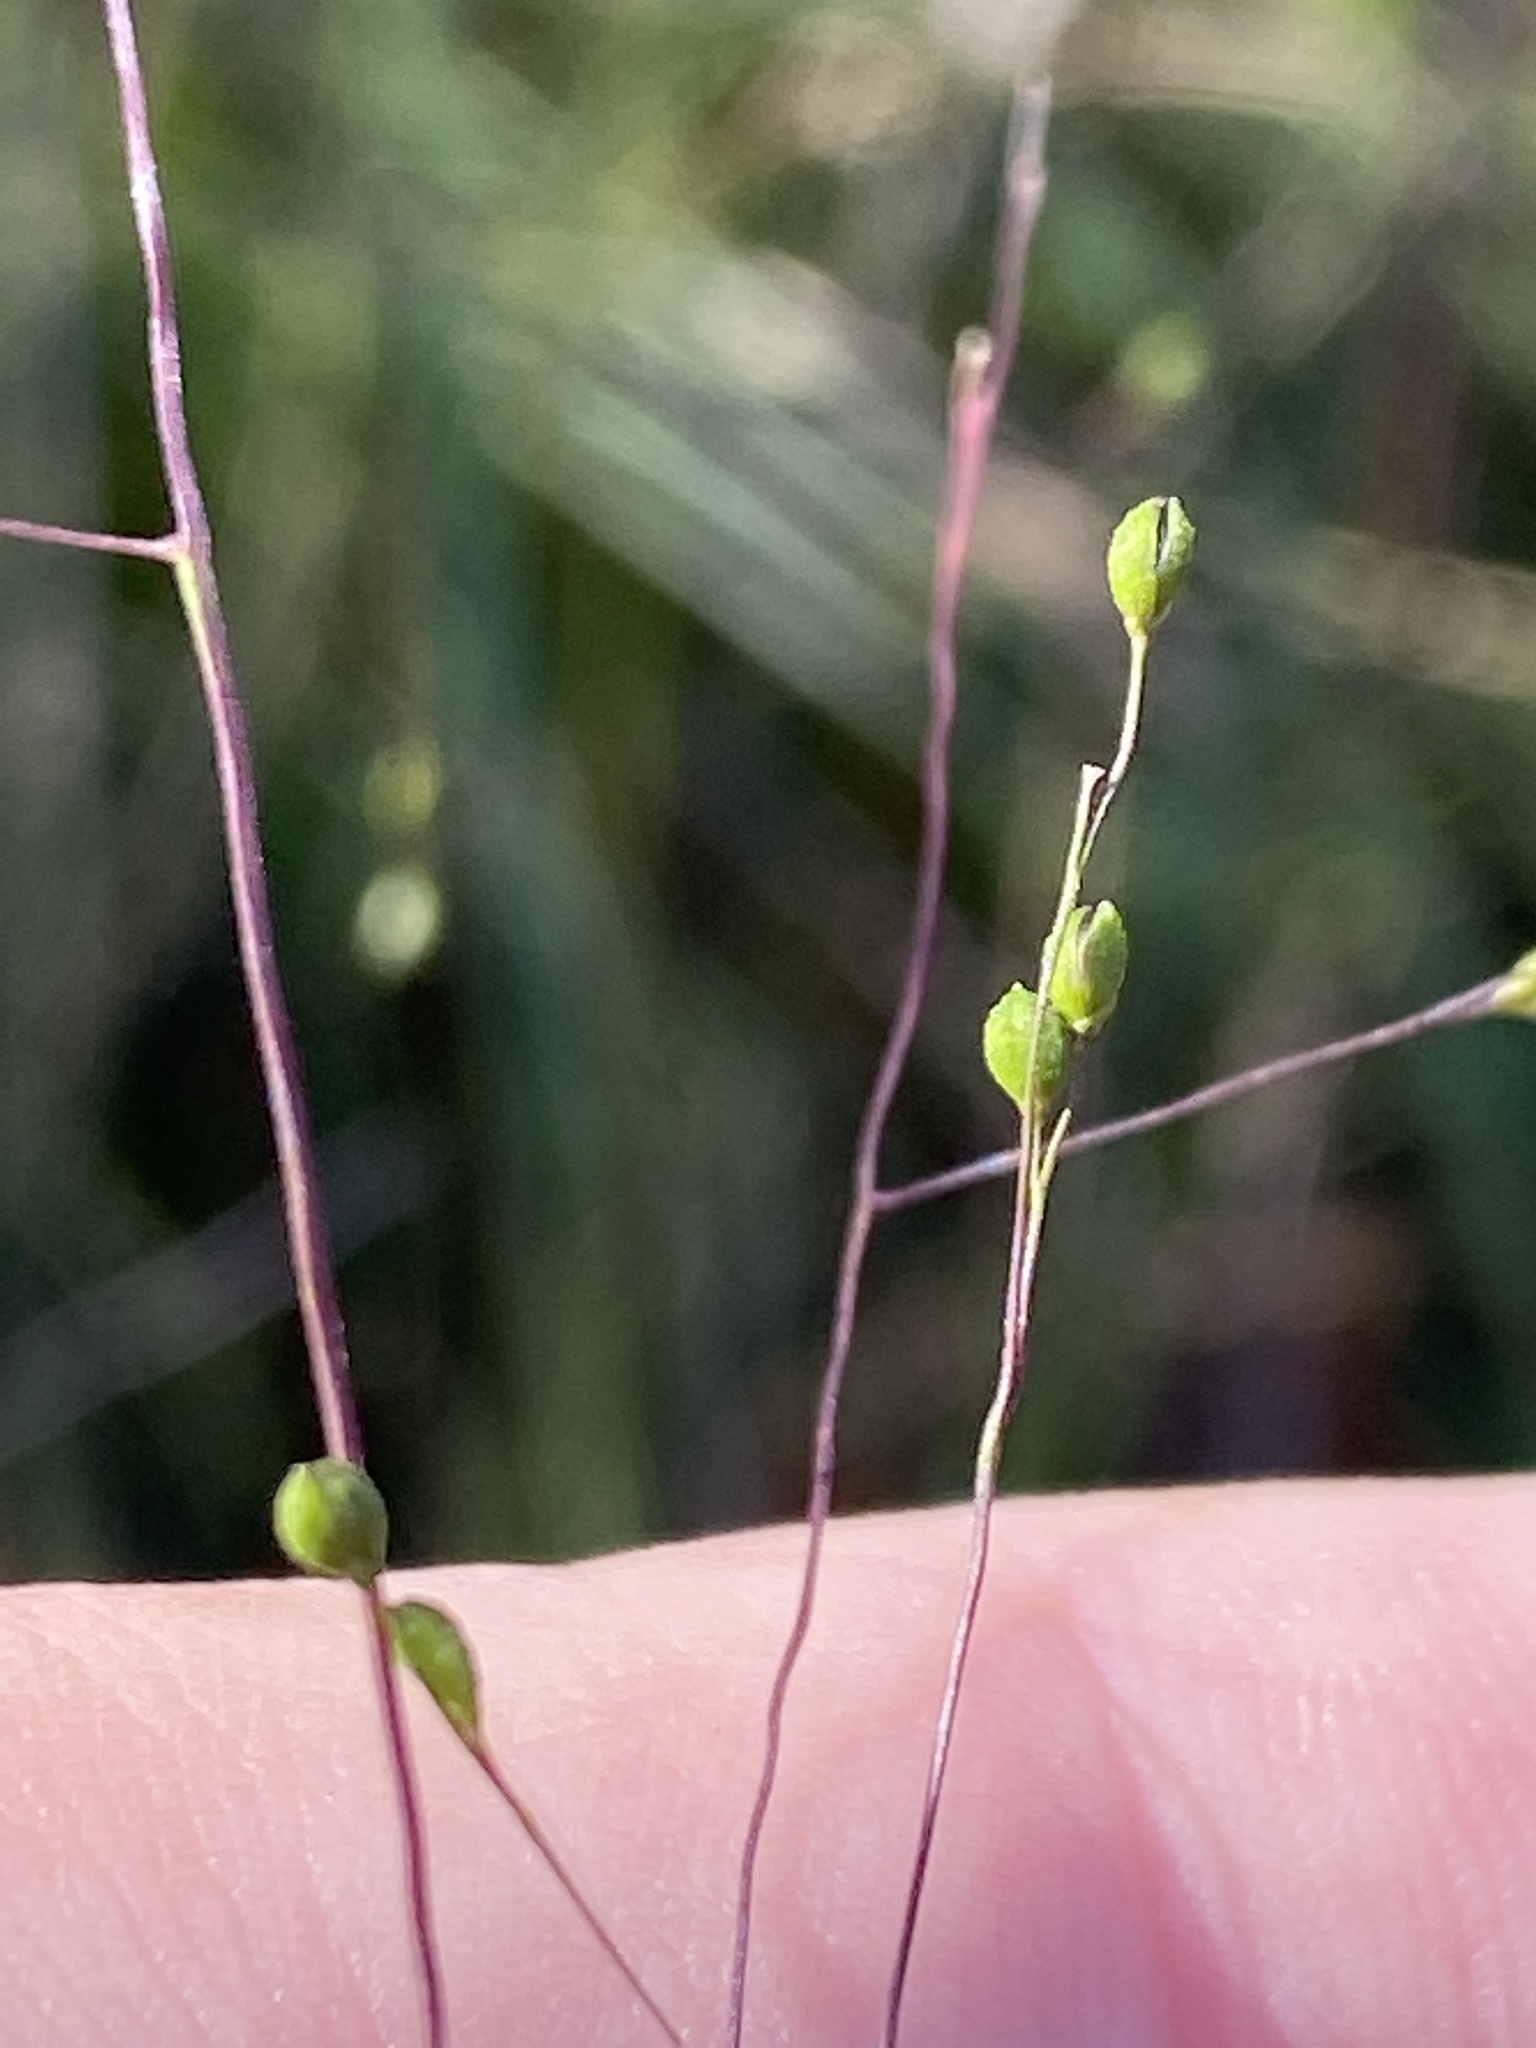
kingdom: Plantae
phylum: Tracheophyta
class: Liliopsida
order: Poales
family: Poaceae
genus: Kellochloa
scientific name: Kellochloa verrucosa
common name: Warty panic grass
